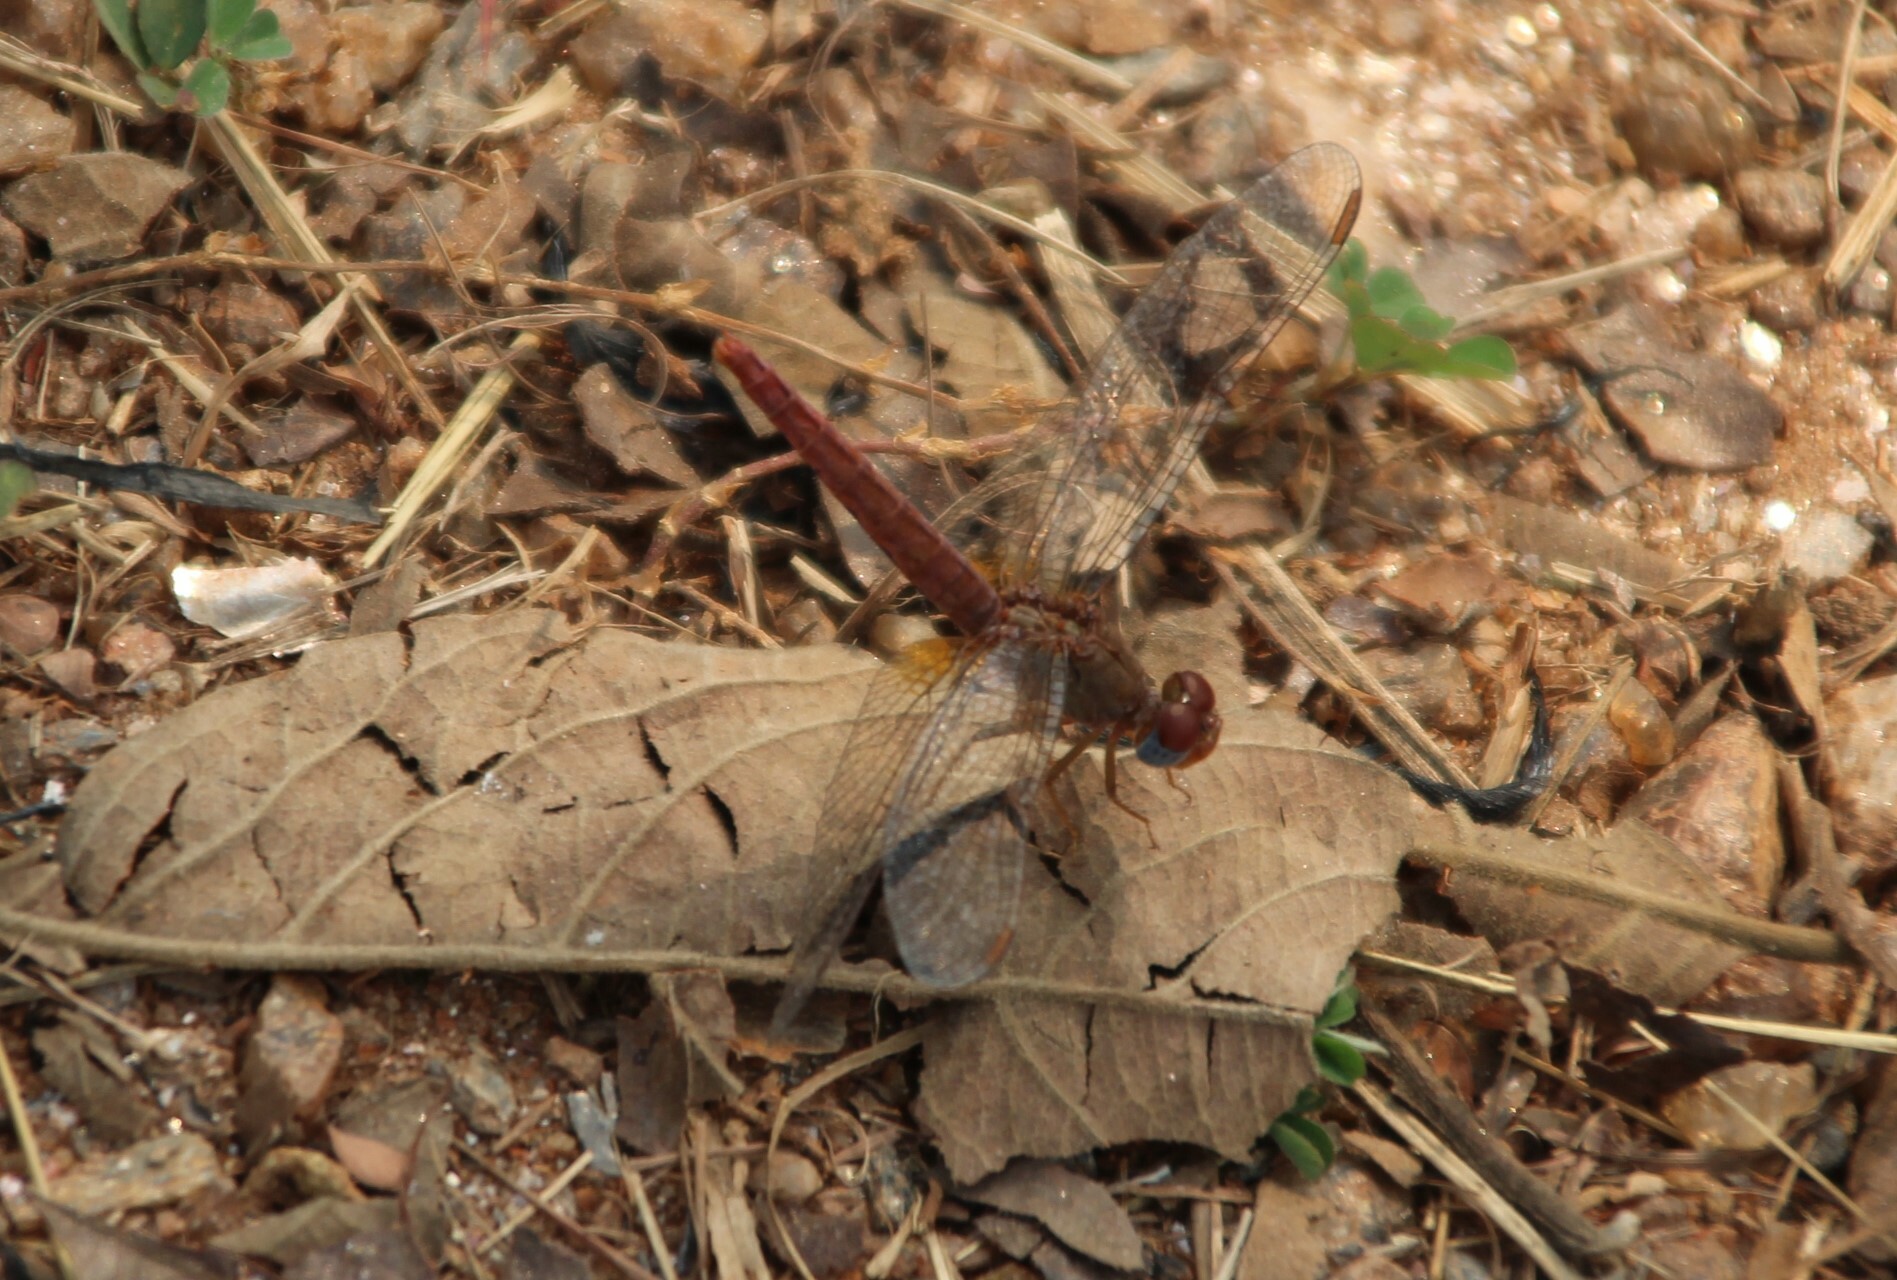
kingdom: Animalia
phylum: Arthropoda
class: Insecta
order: Odonata
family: Libellulidae
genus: Crocothemis
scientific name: Crocothemis sanguinolenta
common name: Little scarlet
